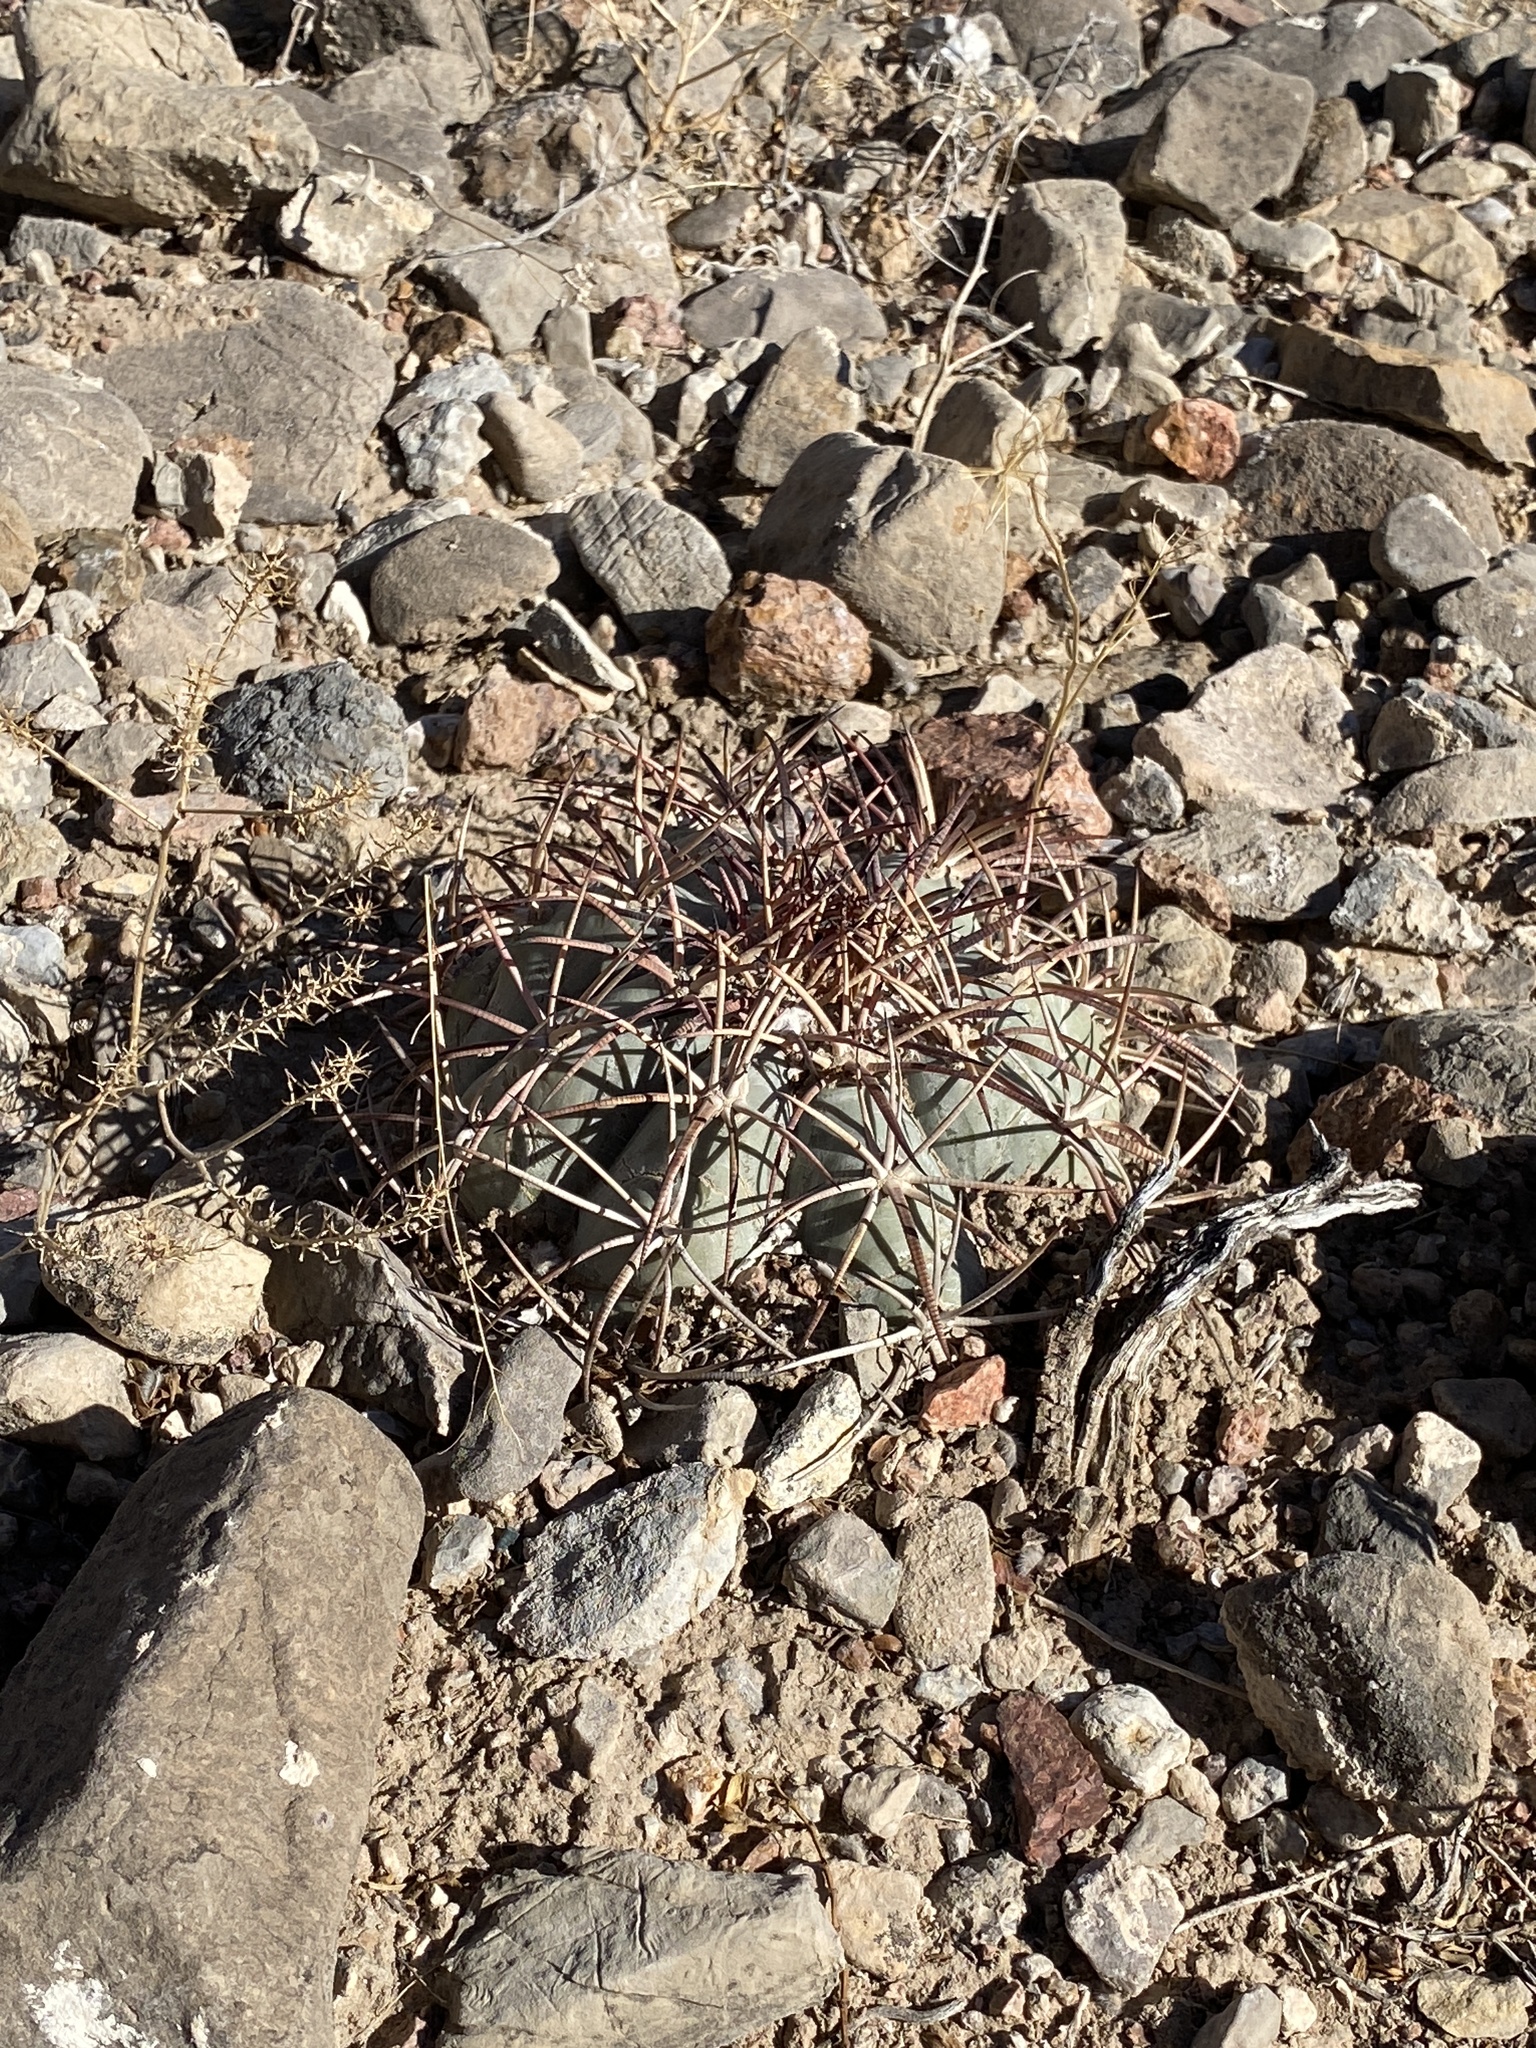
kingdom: Plantae
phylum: Tracheophyta
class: Magnoliopsida
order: Caryophyllales
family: Cactaceae
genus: Echinocactus
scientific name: Echinocactus horizonthalonius
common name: Devilshead
